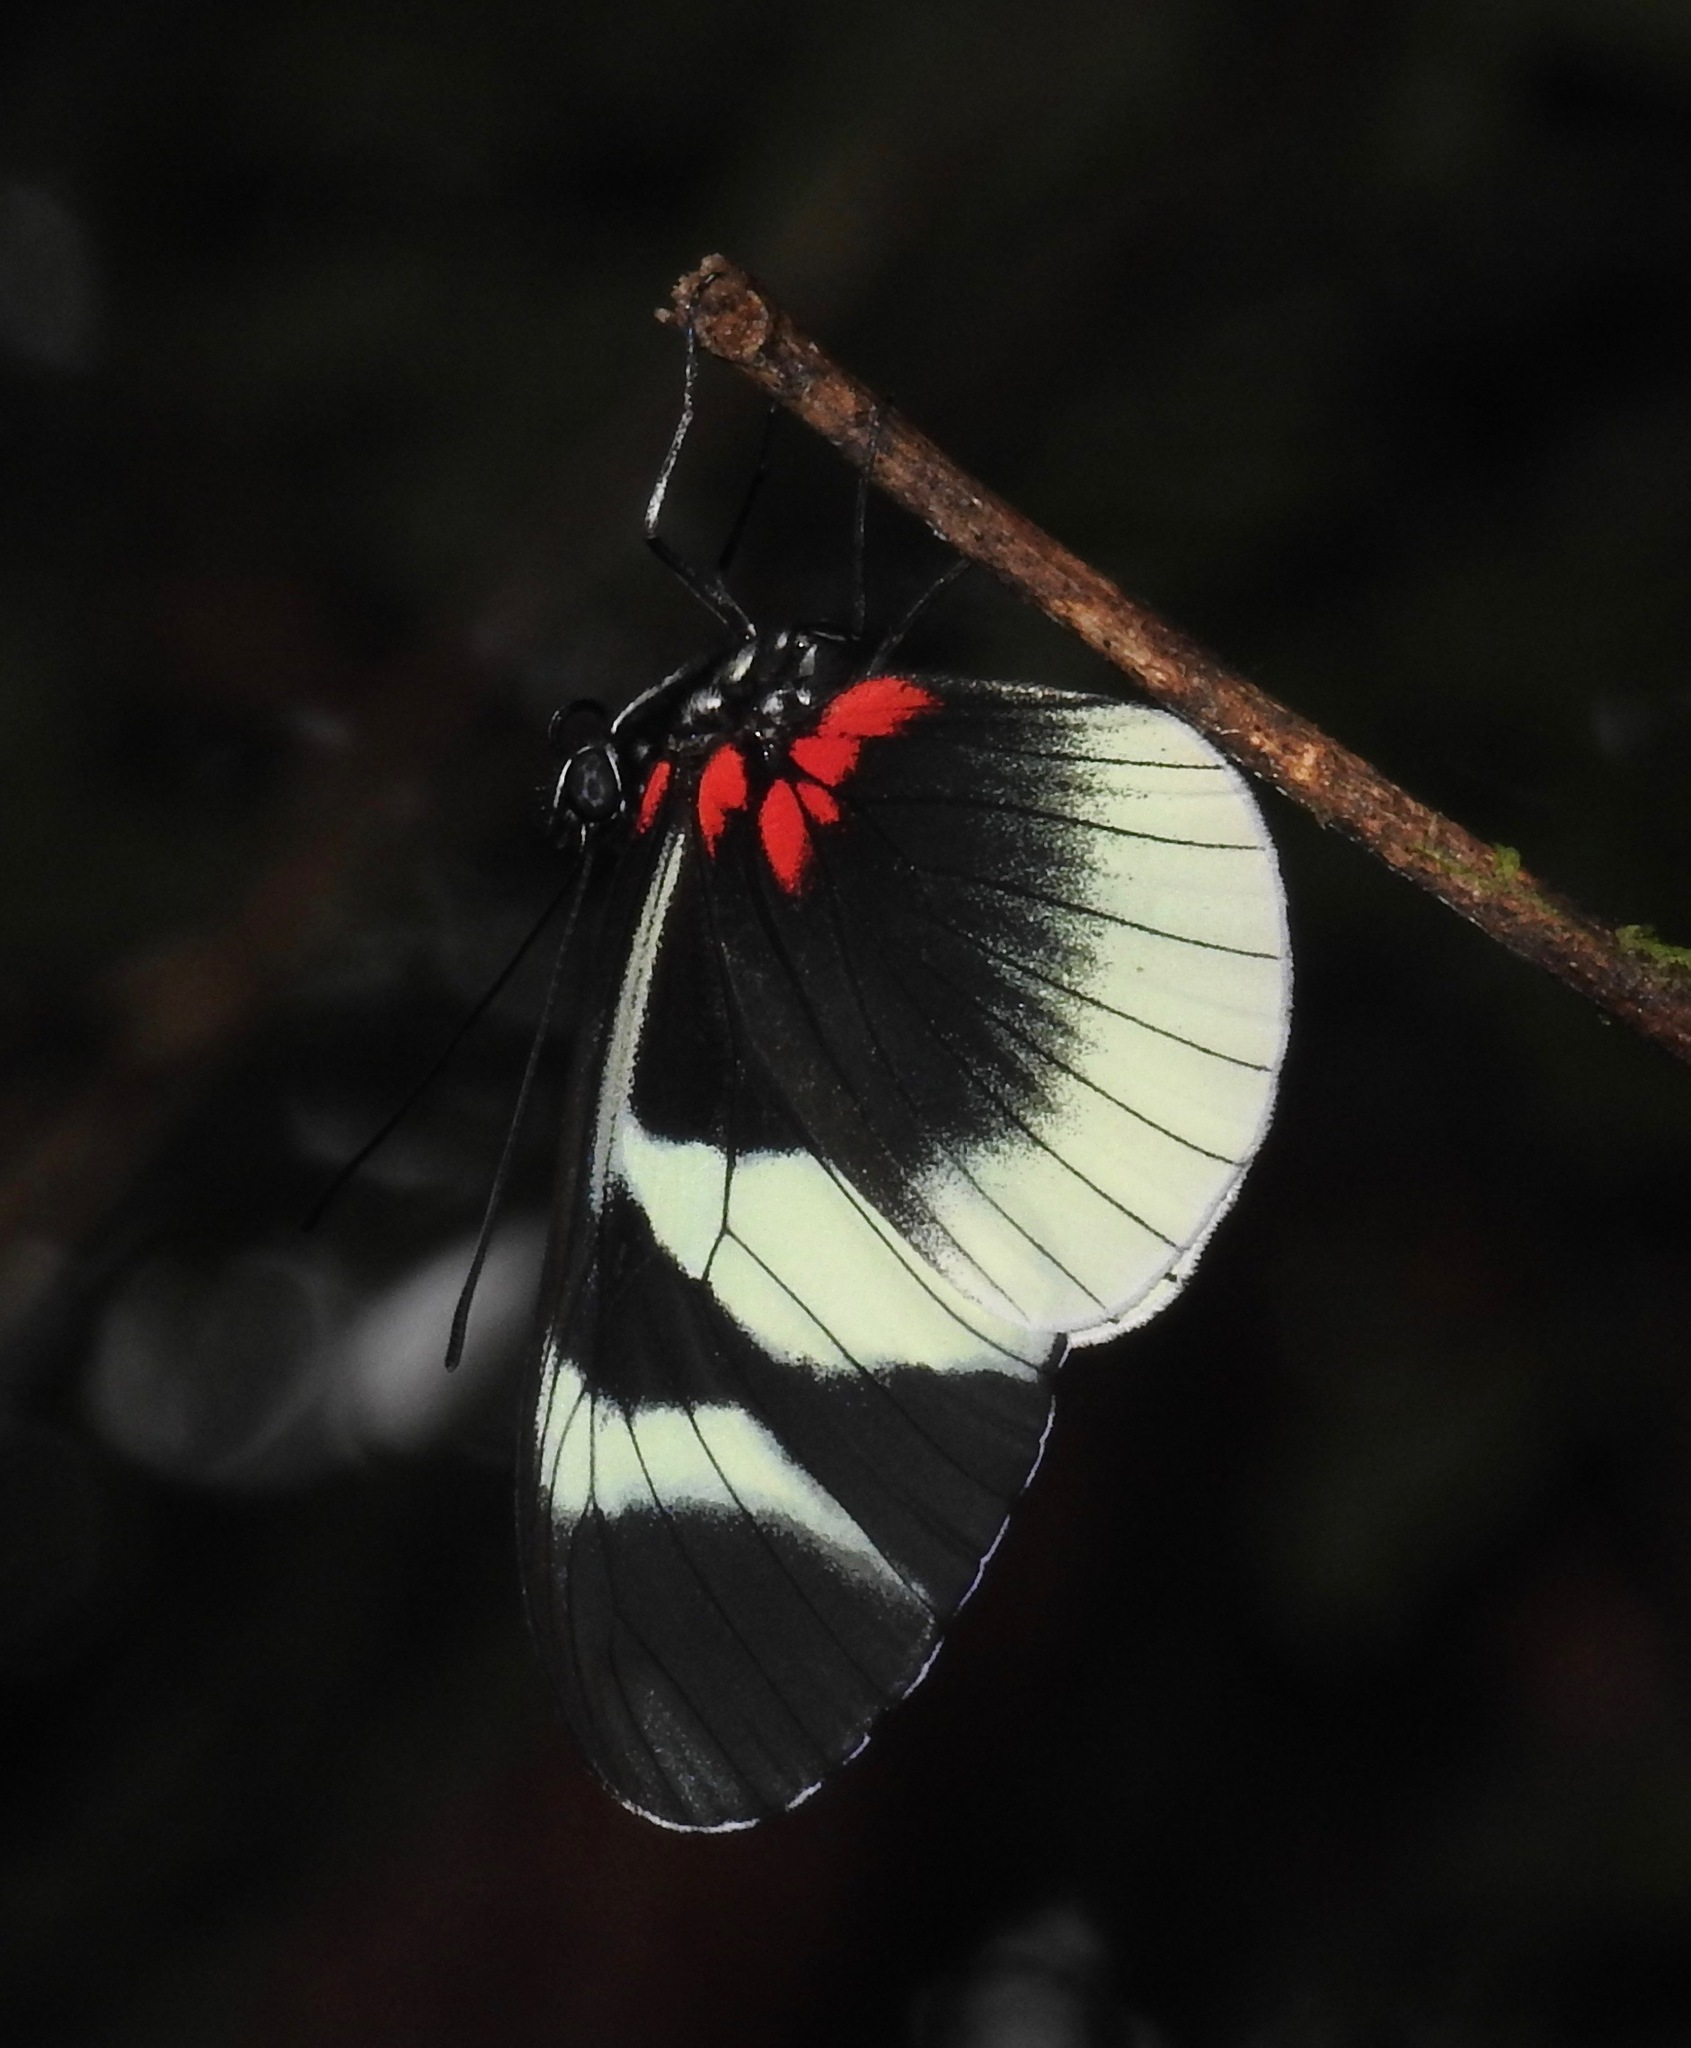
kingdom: Animalia
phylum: Arthropoda
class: Insecta
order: Lepidoptera
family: Nymphalidae
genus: Heliconius
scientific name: Heliconius eleuchia
